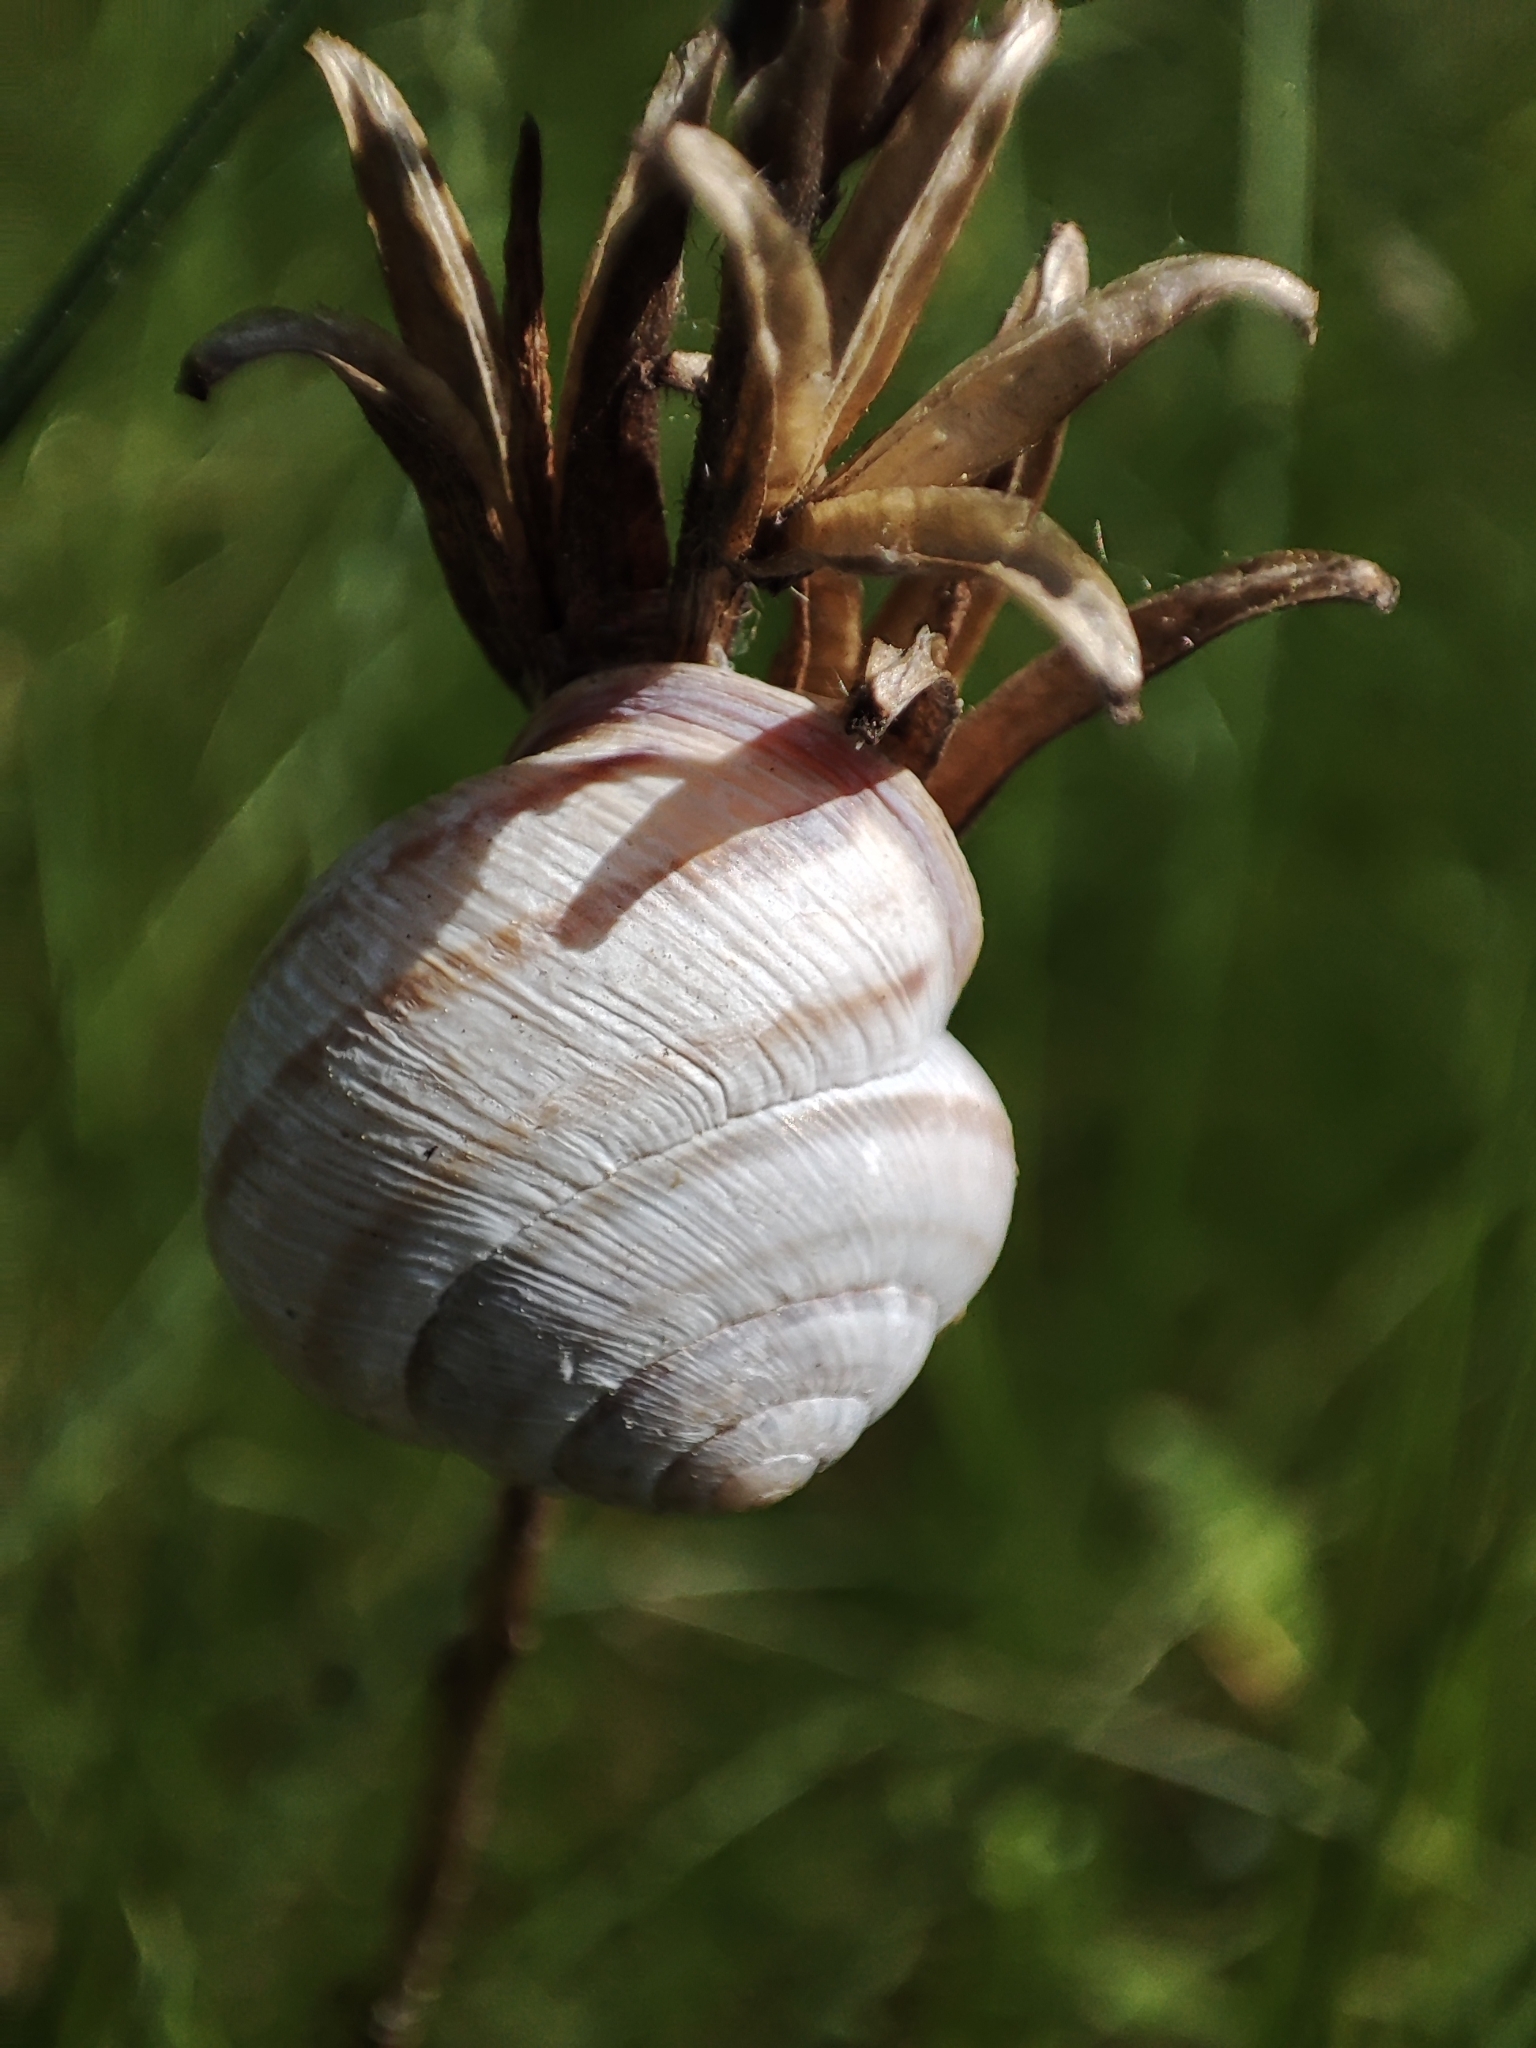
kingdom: Animalia
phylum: Mollusca
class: Gastropoda
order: Stylommatophora
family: Helicidae
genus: Caucasotachea
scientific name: Caucasotachea vindobonensis
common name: European helicid land snail
